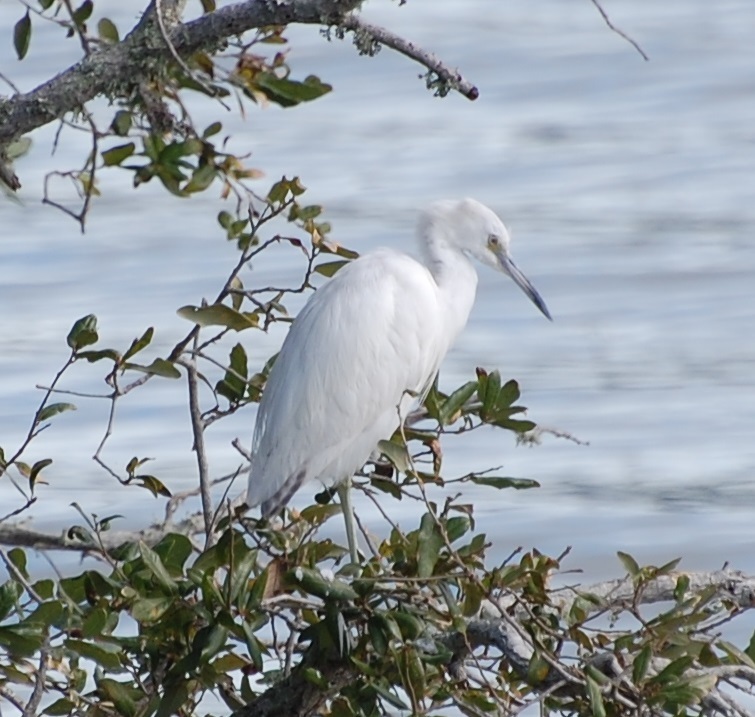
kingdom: Animalia
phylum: Chordata
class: Aves
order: Pelecaniformes
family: Ardeidae
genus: Egretta
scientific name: Egretta caerulea
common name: Little blue heron
